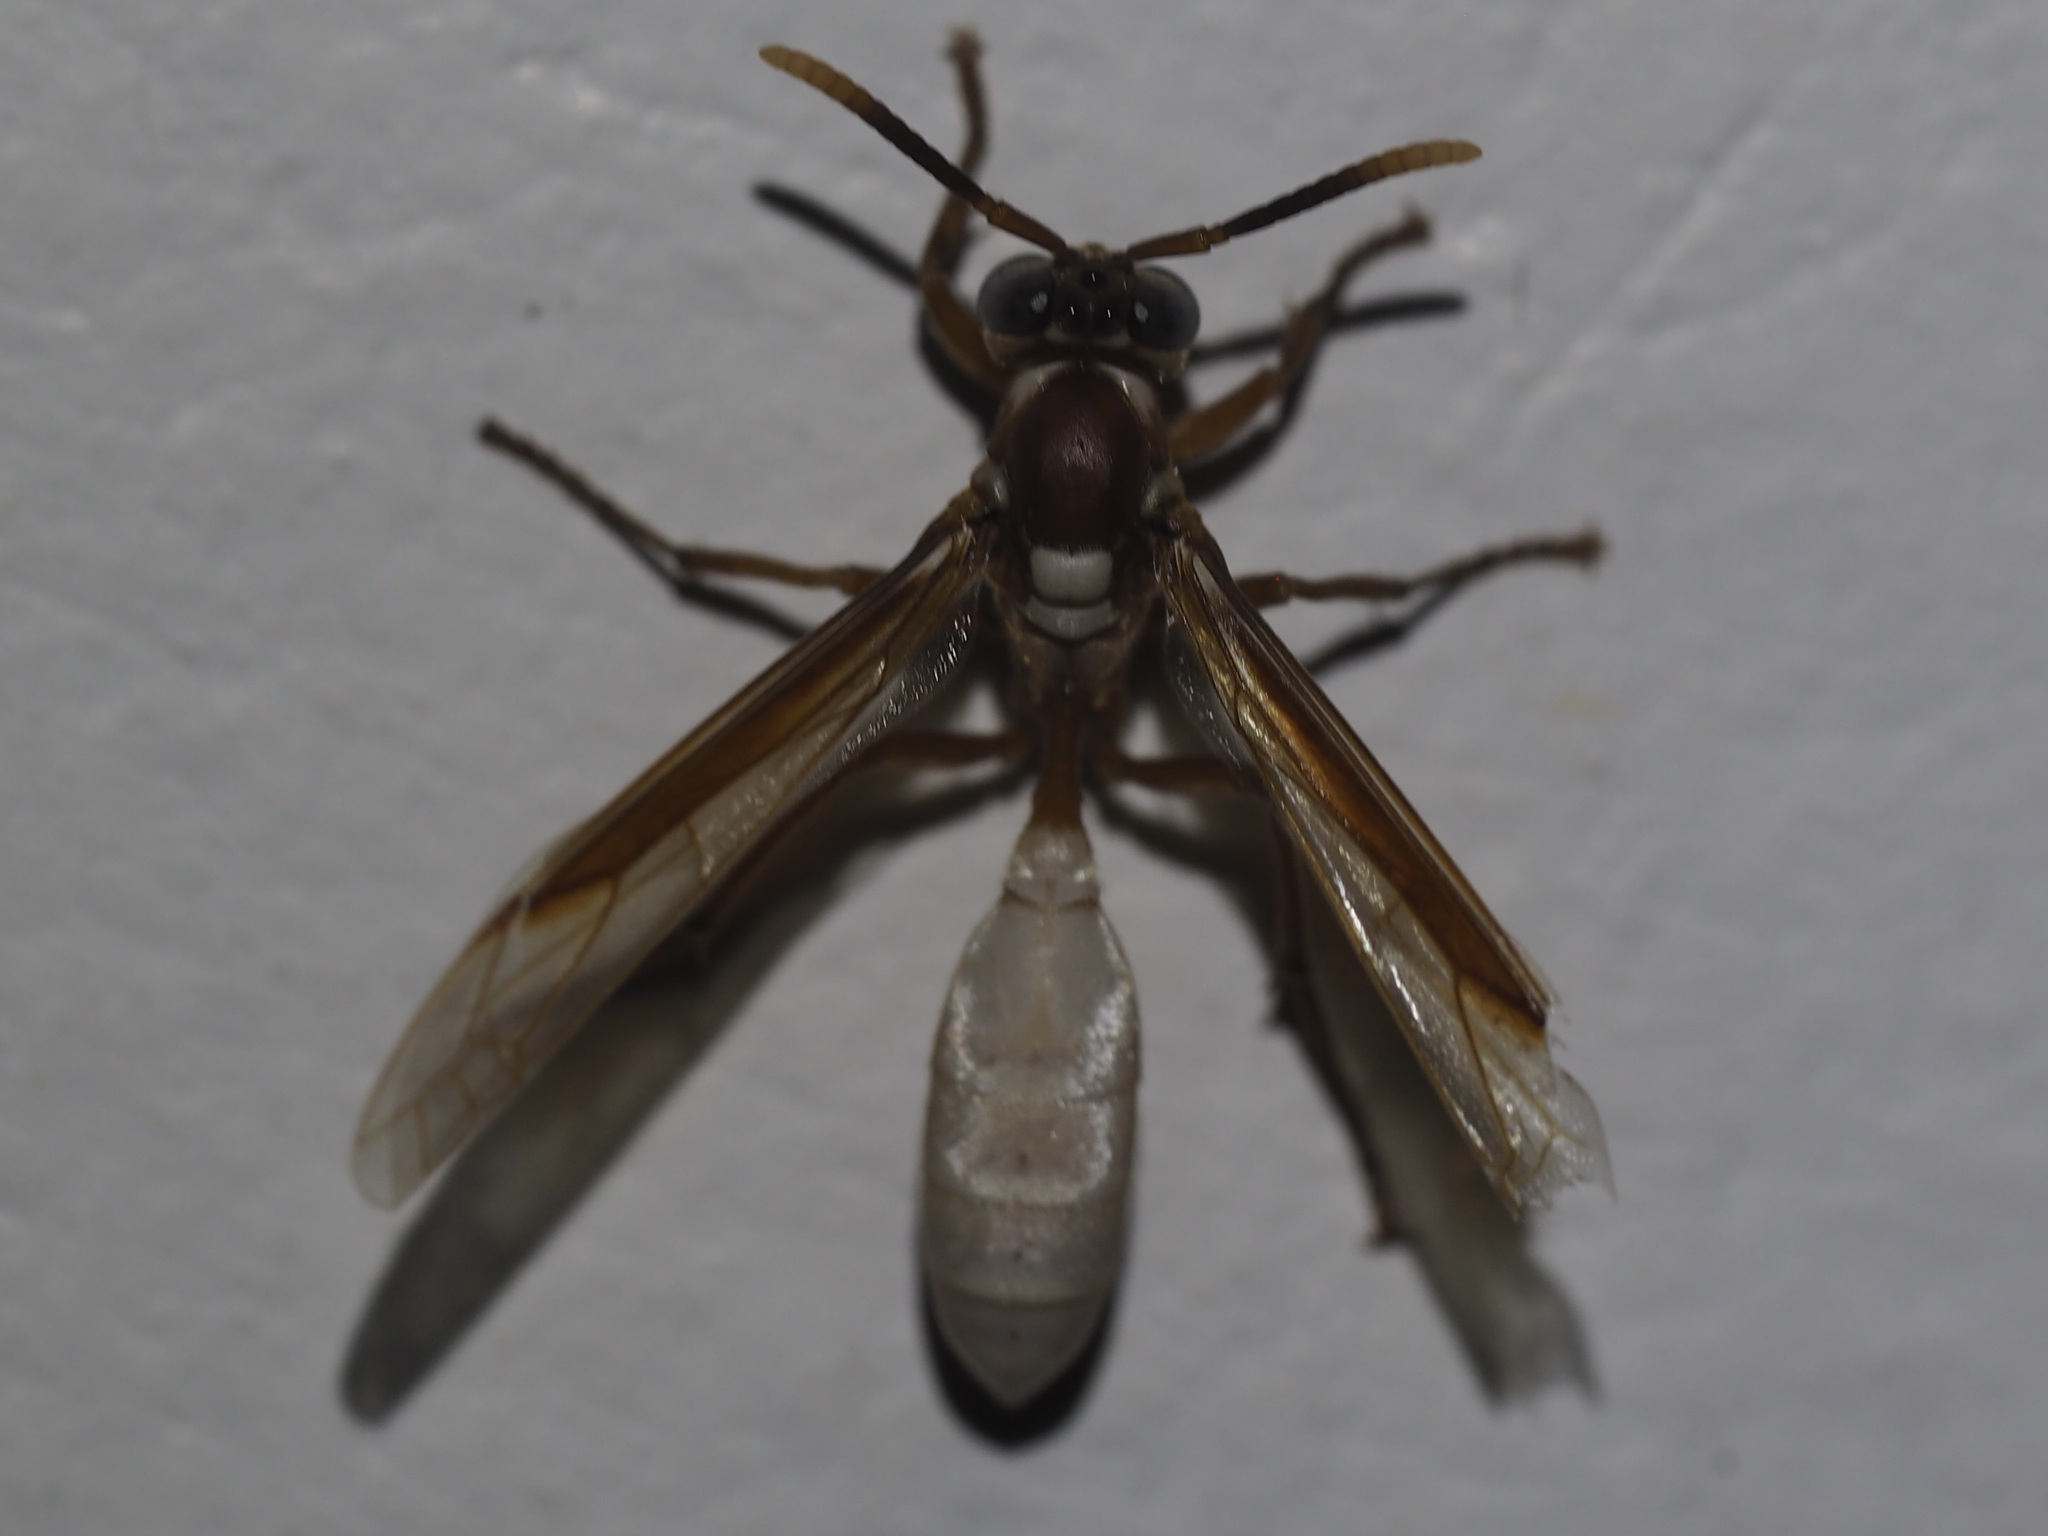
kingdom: Animalia
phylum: Arthropoda
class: Insecta
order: Hymenoptera
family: Vespidae
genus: Apoica
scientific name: Apoica gelida
